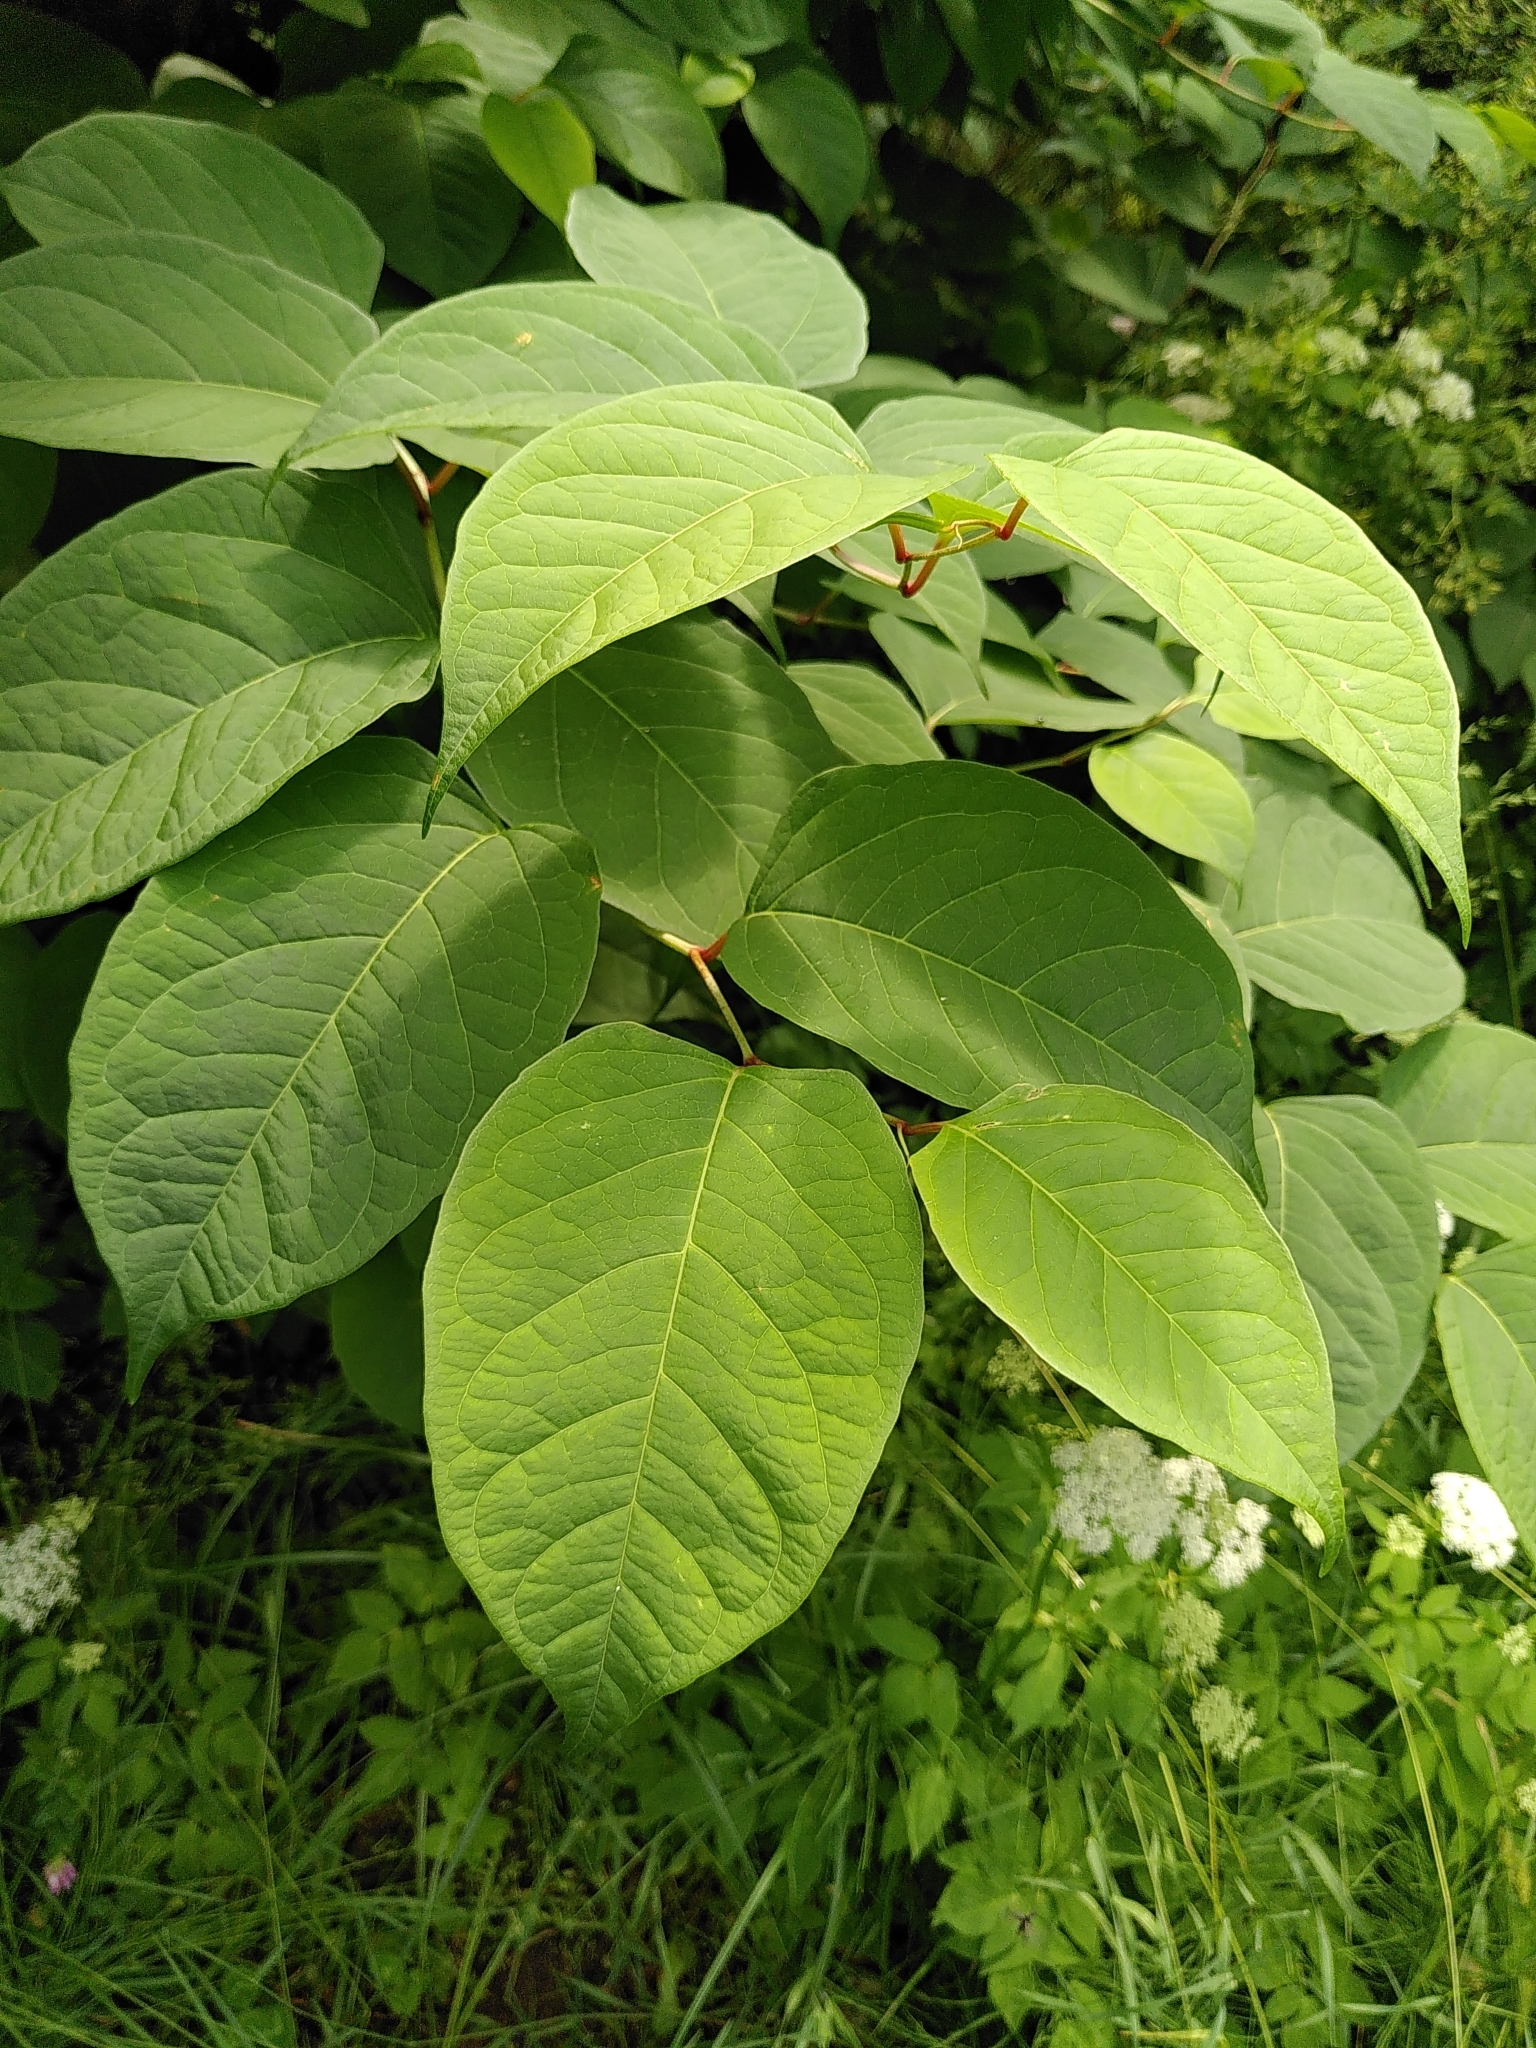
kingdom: Plantae
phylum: Tracheophyta
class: Magnoliopsida
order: Caryophyllales
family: Polygonaceae
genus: Reynoutria
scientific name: Reynoutria japonica
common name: Japanese knotweed
